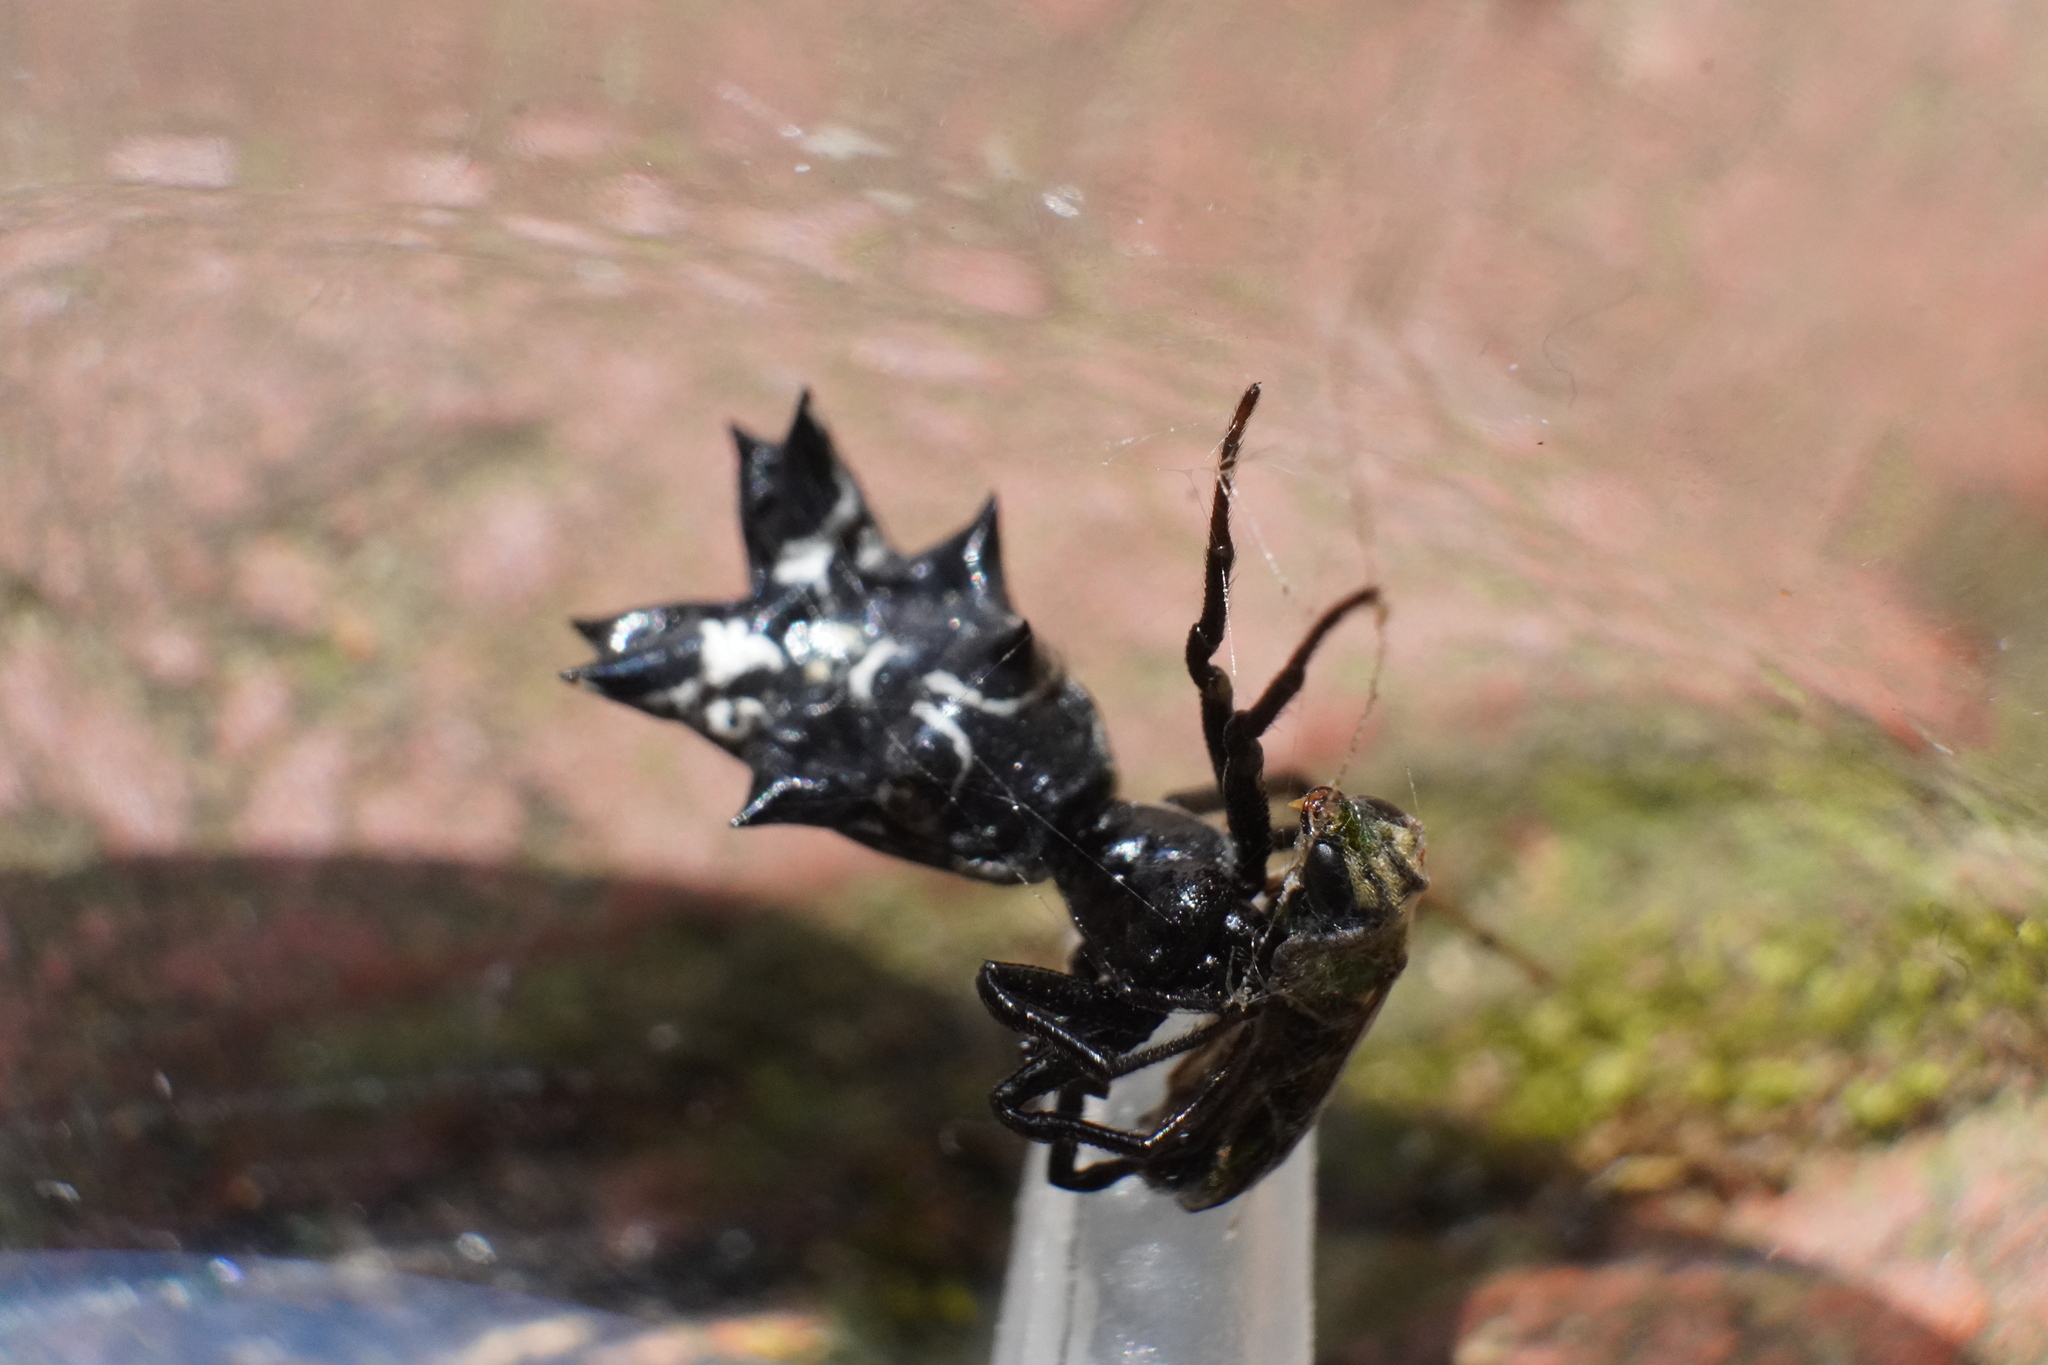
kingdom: Animalia
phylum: Arthropoda
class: Arachnida
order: Araneae
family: Araneidae
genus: Micrathena
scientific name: Micrathena gracilis
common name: Orb weavers
